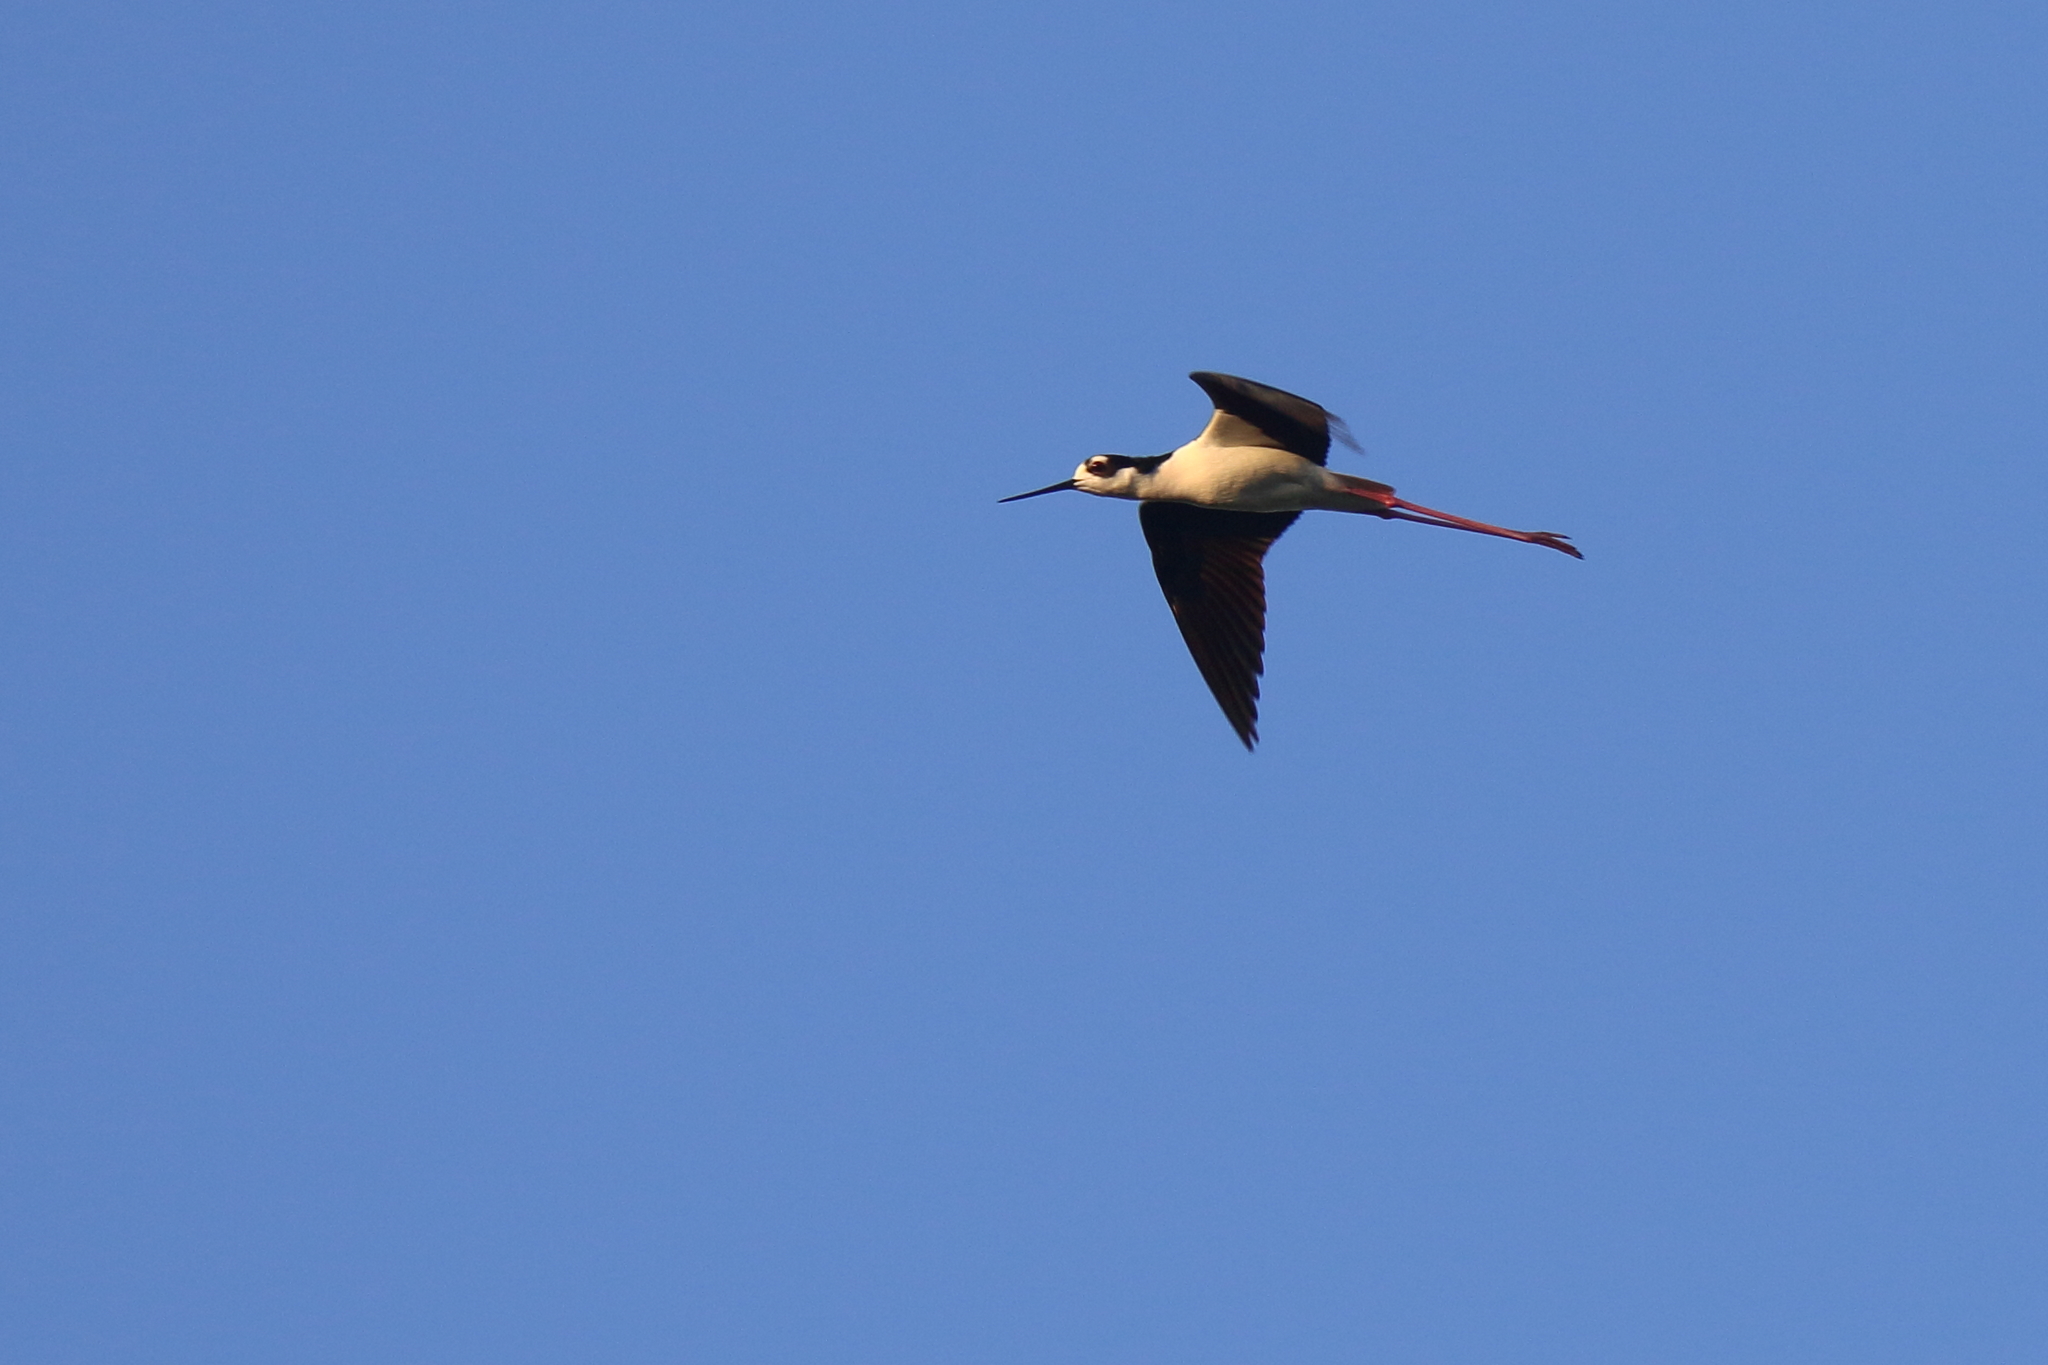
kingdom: Animalia
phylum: Chordata
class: Aves
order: Charadriiformes
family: Recurvirostridae
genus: Himantopus
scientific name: Himantopus mexicanus
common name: Black-necked stilt
